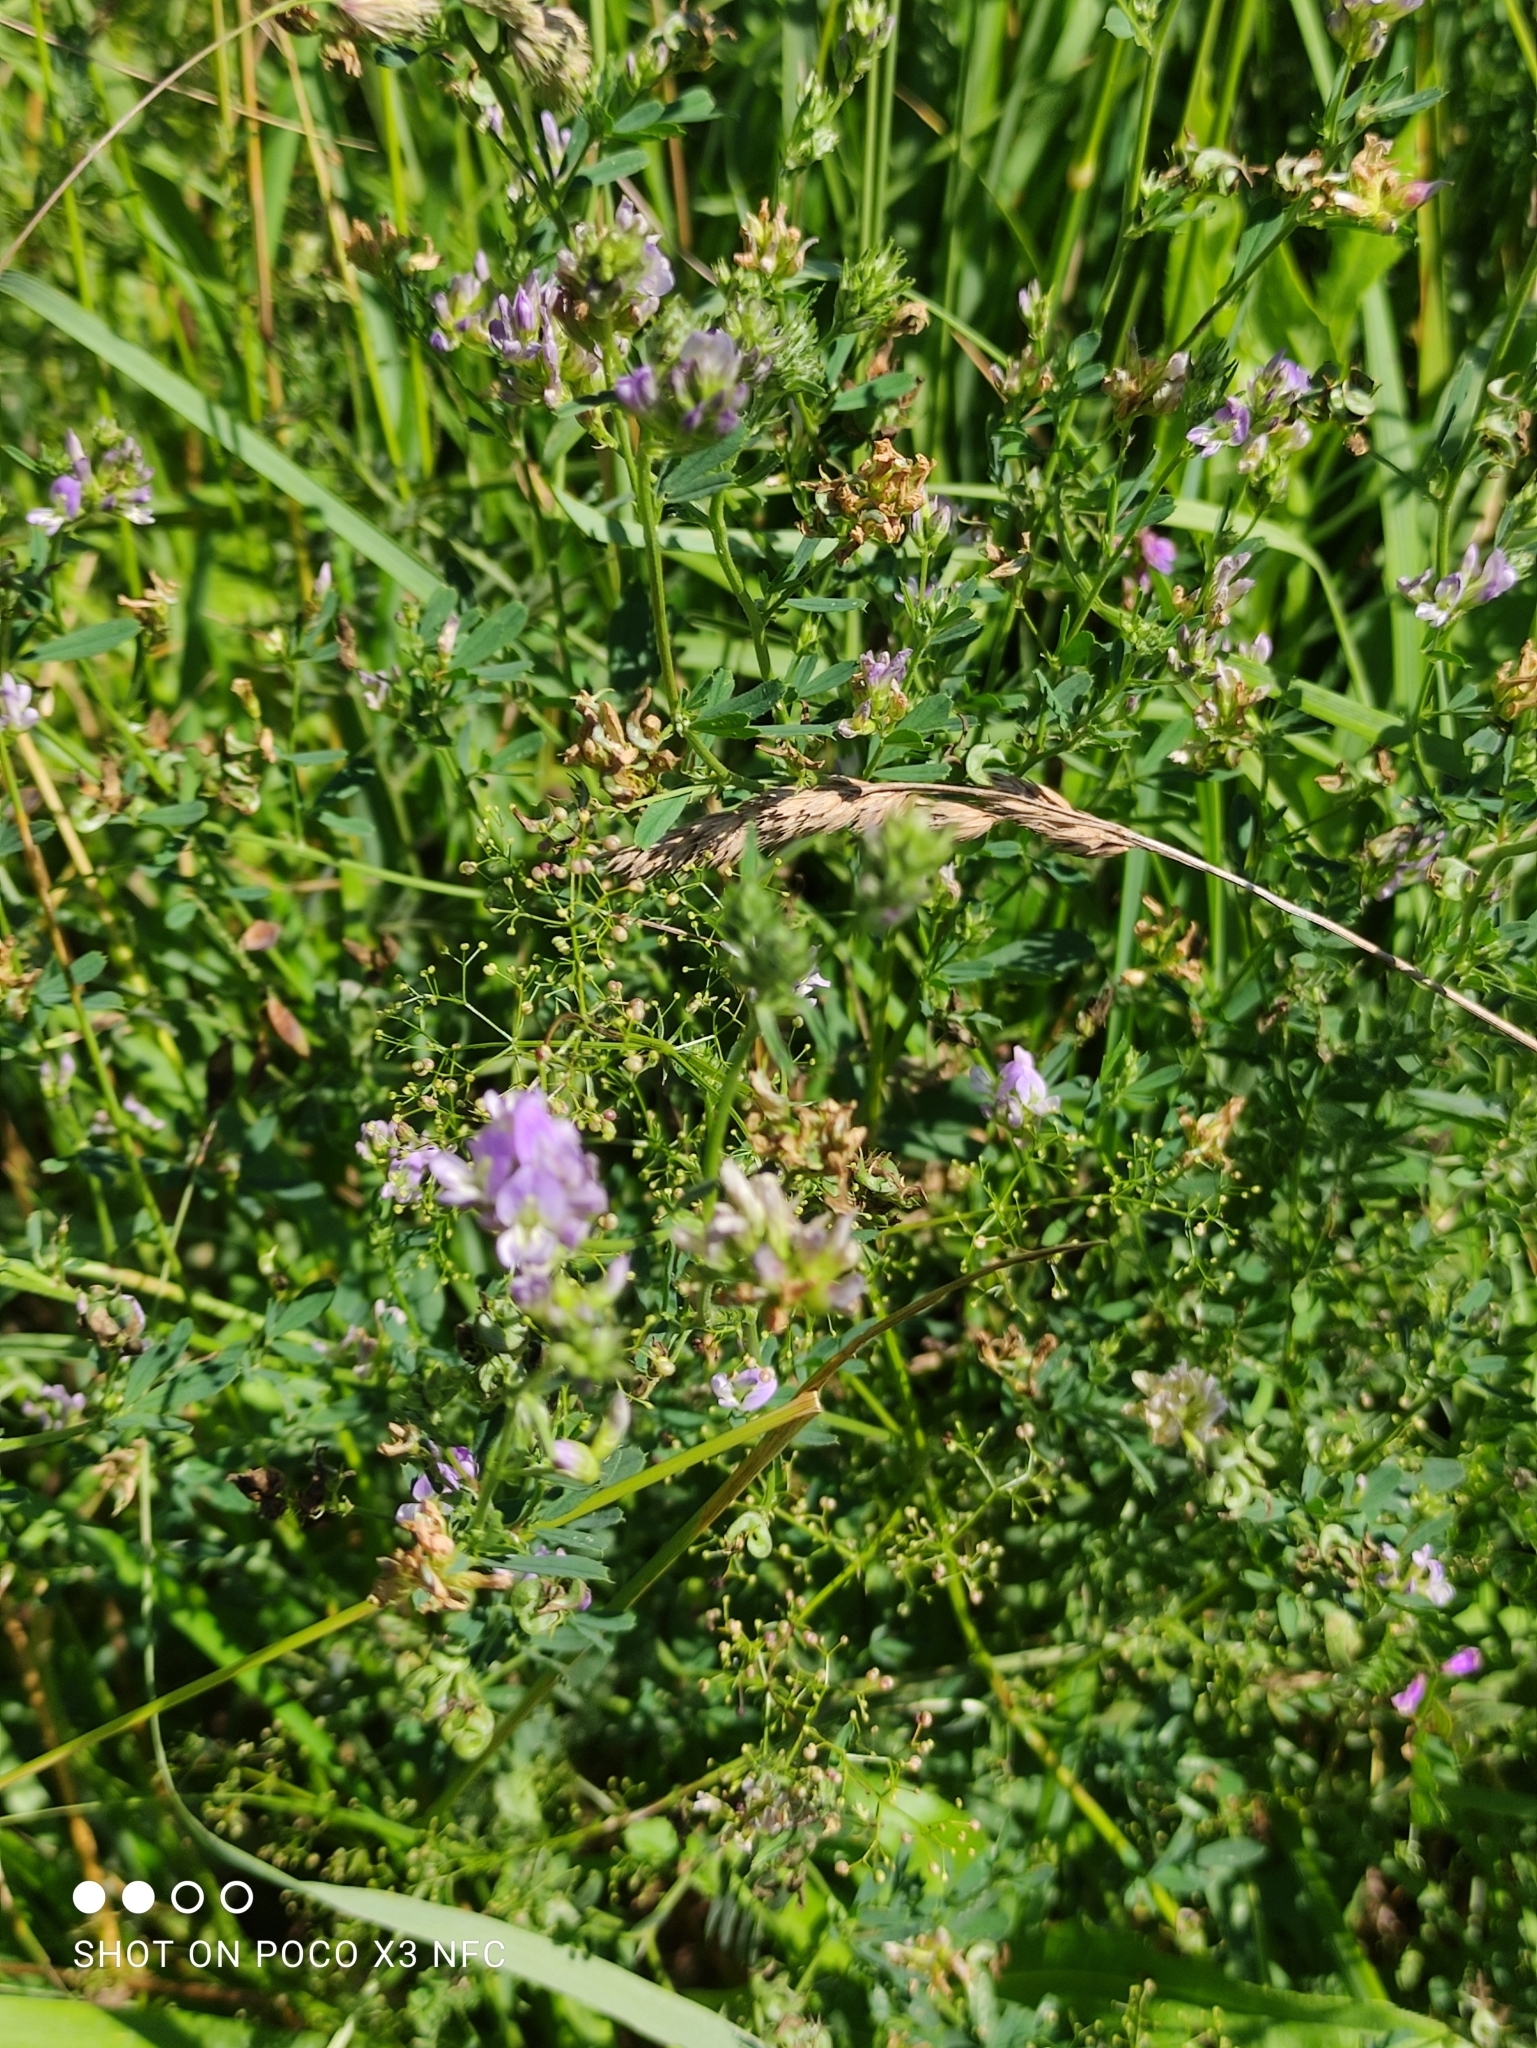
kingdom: Plantae
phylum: Tracheophyta
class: Magnoliopsida
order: Fabales
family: Fabaceae
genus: Medicago
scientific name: Medicago sativa
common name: Alfalfa
